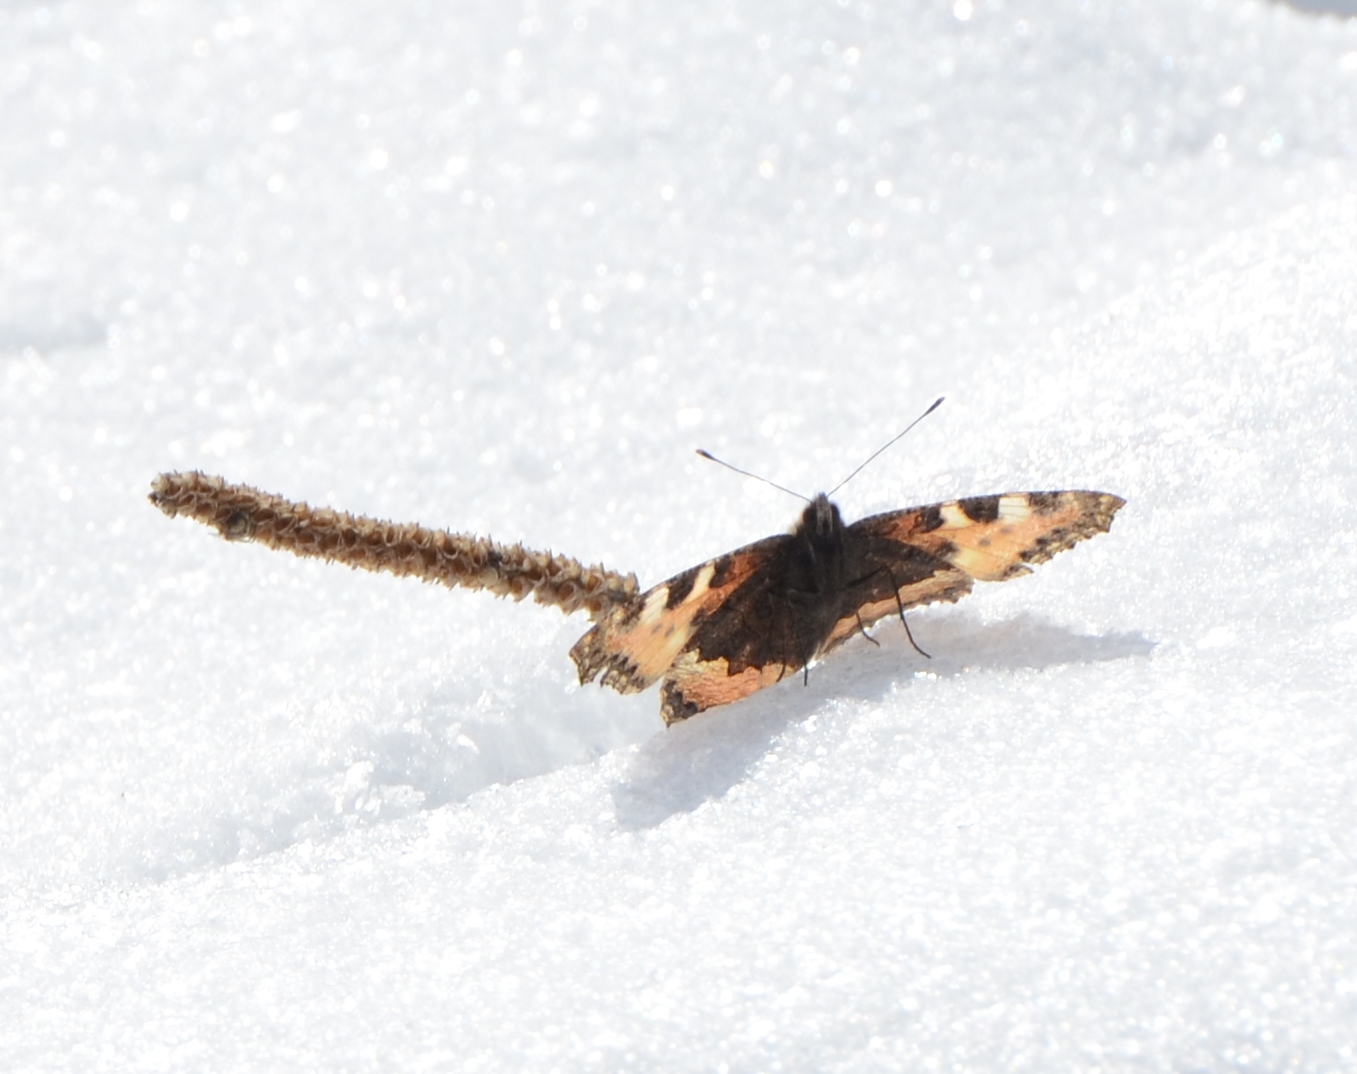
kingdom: Animalia
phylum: Arthropoda
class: Insecta
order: Lepidoptera
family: Nymphalidae
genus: Aglais
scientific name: Aglais urticae
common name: Small tortoiseshell
